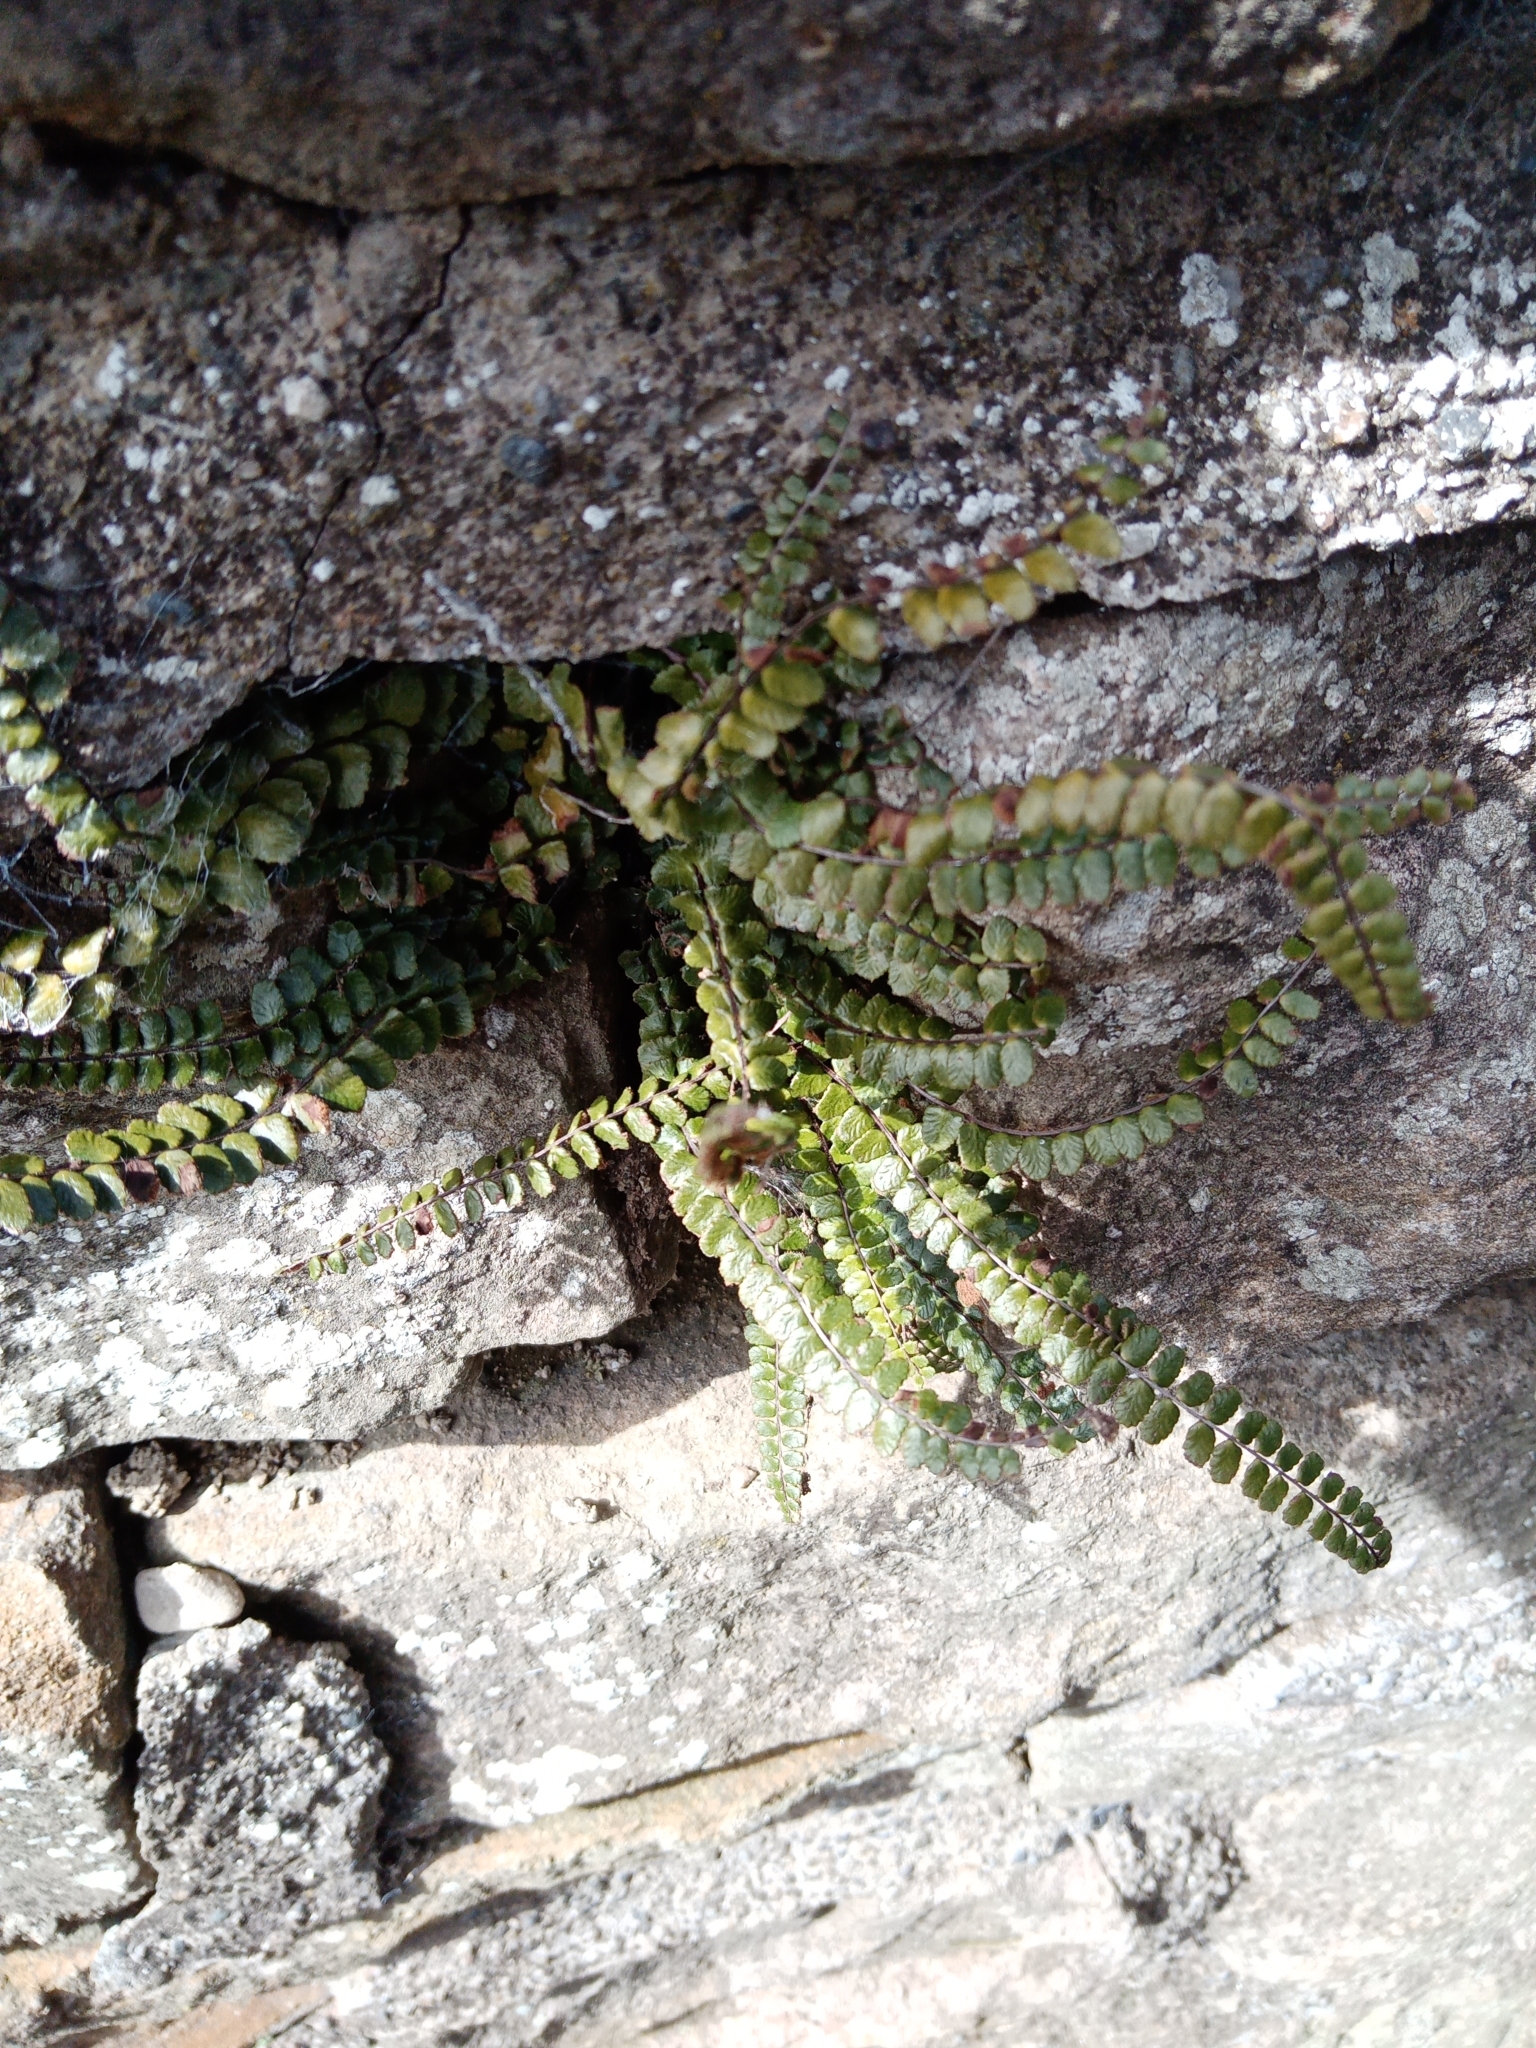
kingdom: Plantae
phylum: Tracheophyta
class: Polypodiopsida
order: Polypodiales
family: Aspleniaceae
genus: Asplenium
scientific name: Asplenium trichomanes
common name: Maidenhair spleenwort
